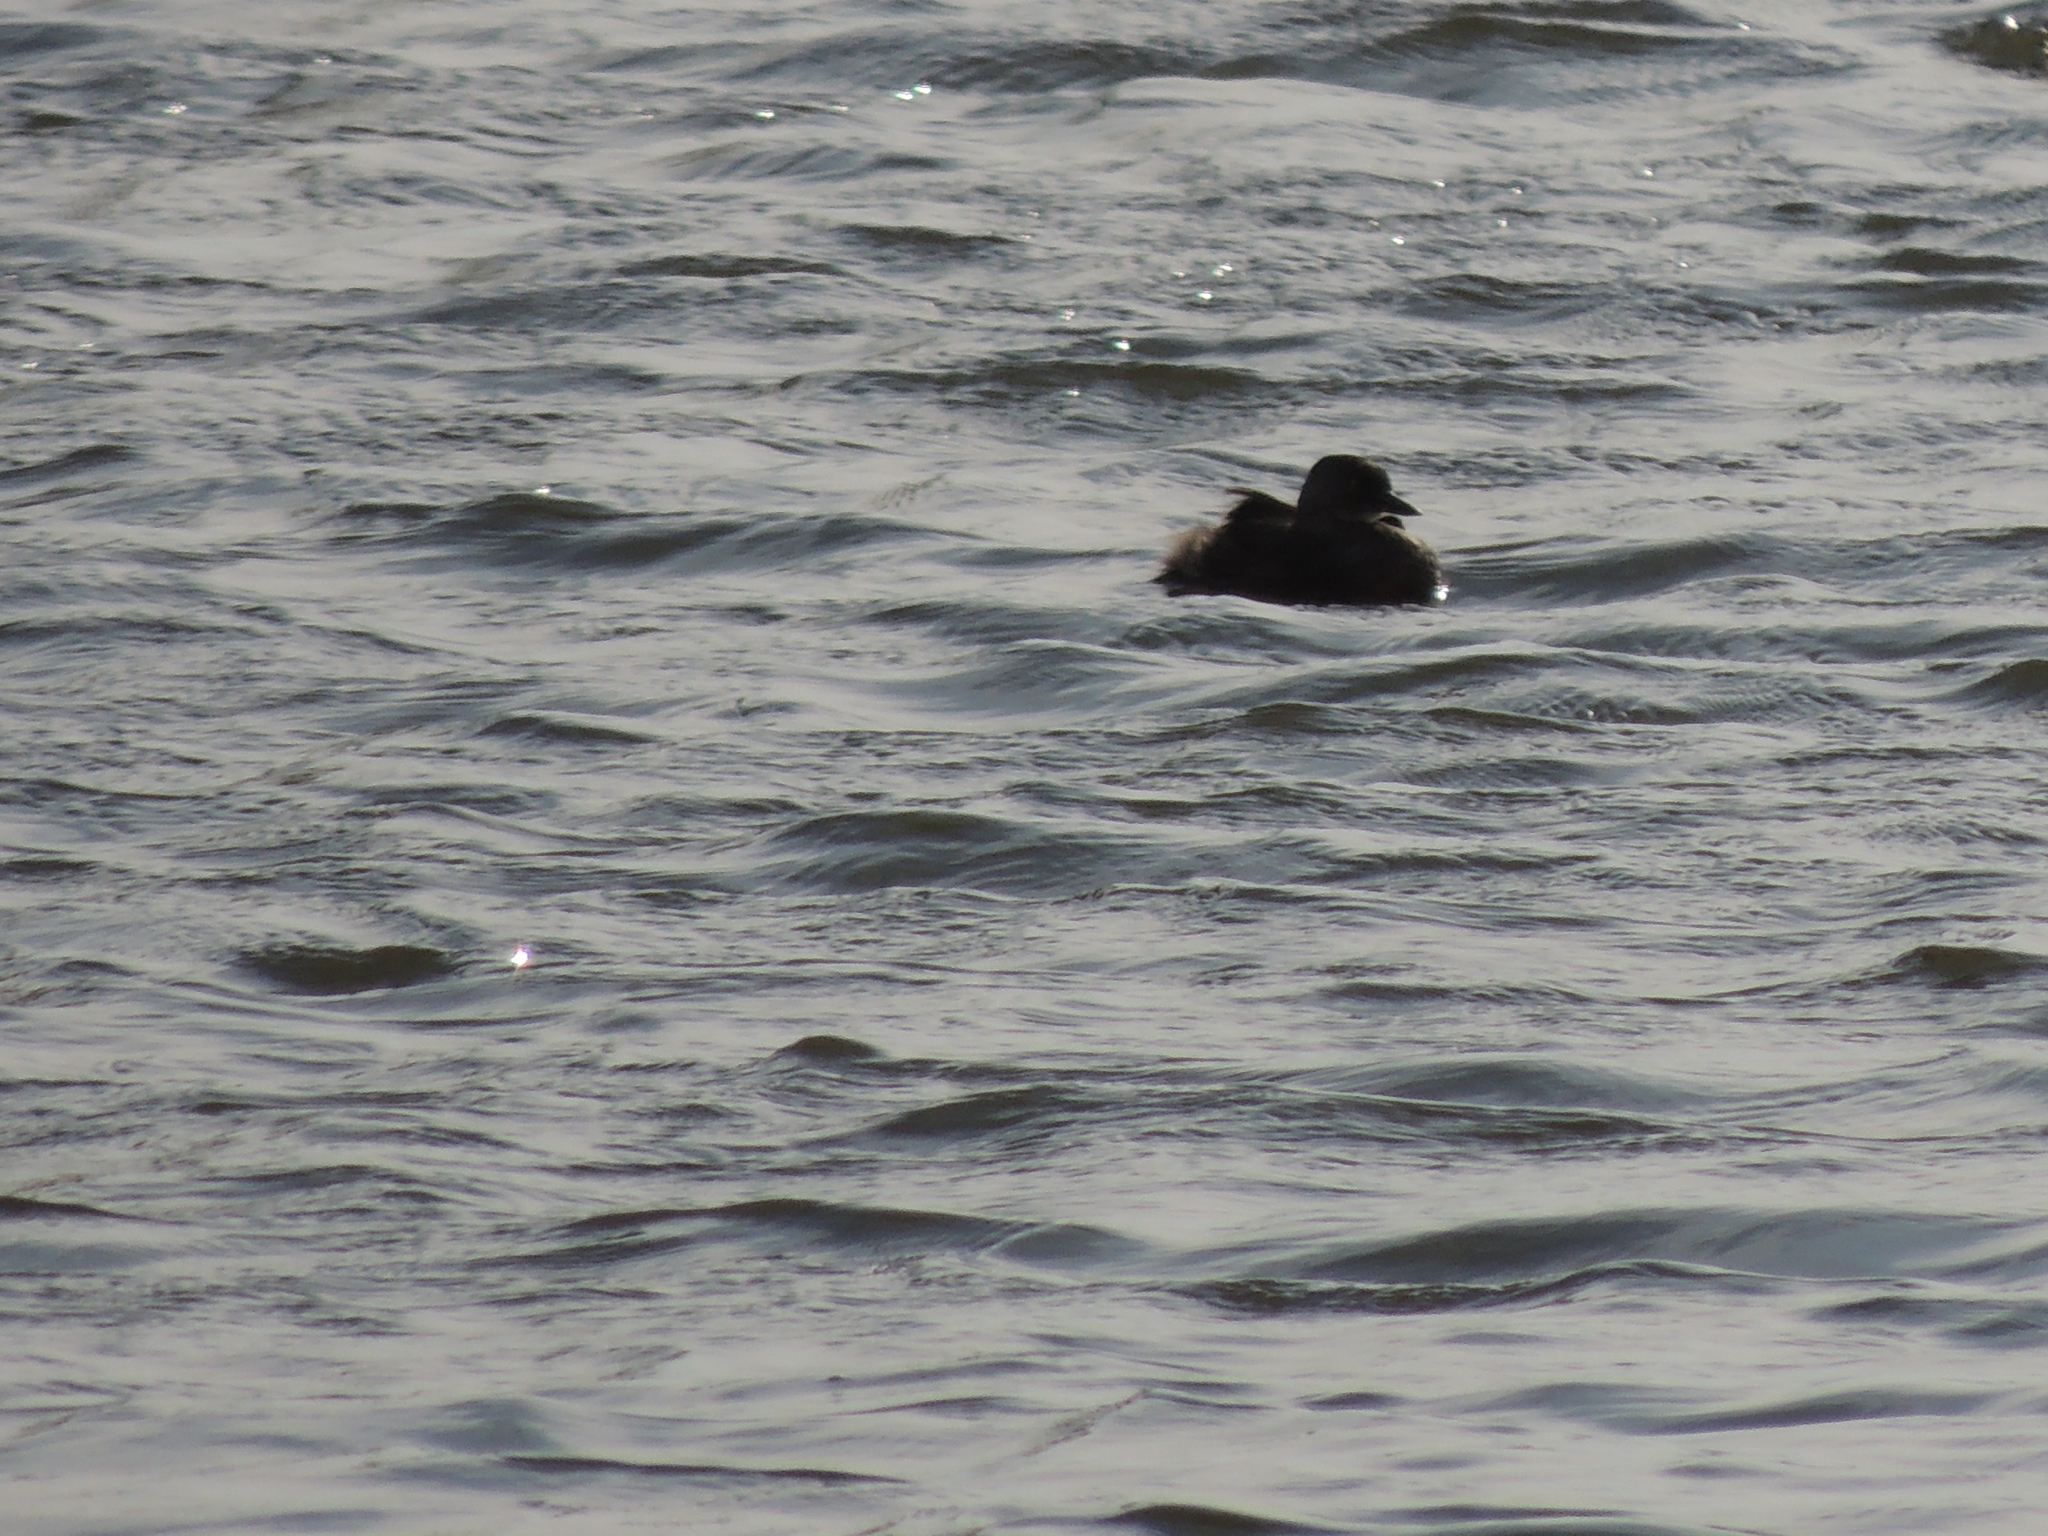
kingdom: Animalia
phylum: Chordata
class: Aves
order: Podicipediformes
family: Podicipedidae
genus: Tachybaptus
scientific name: Tachybaptus dominicus
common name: Least grebe
